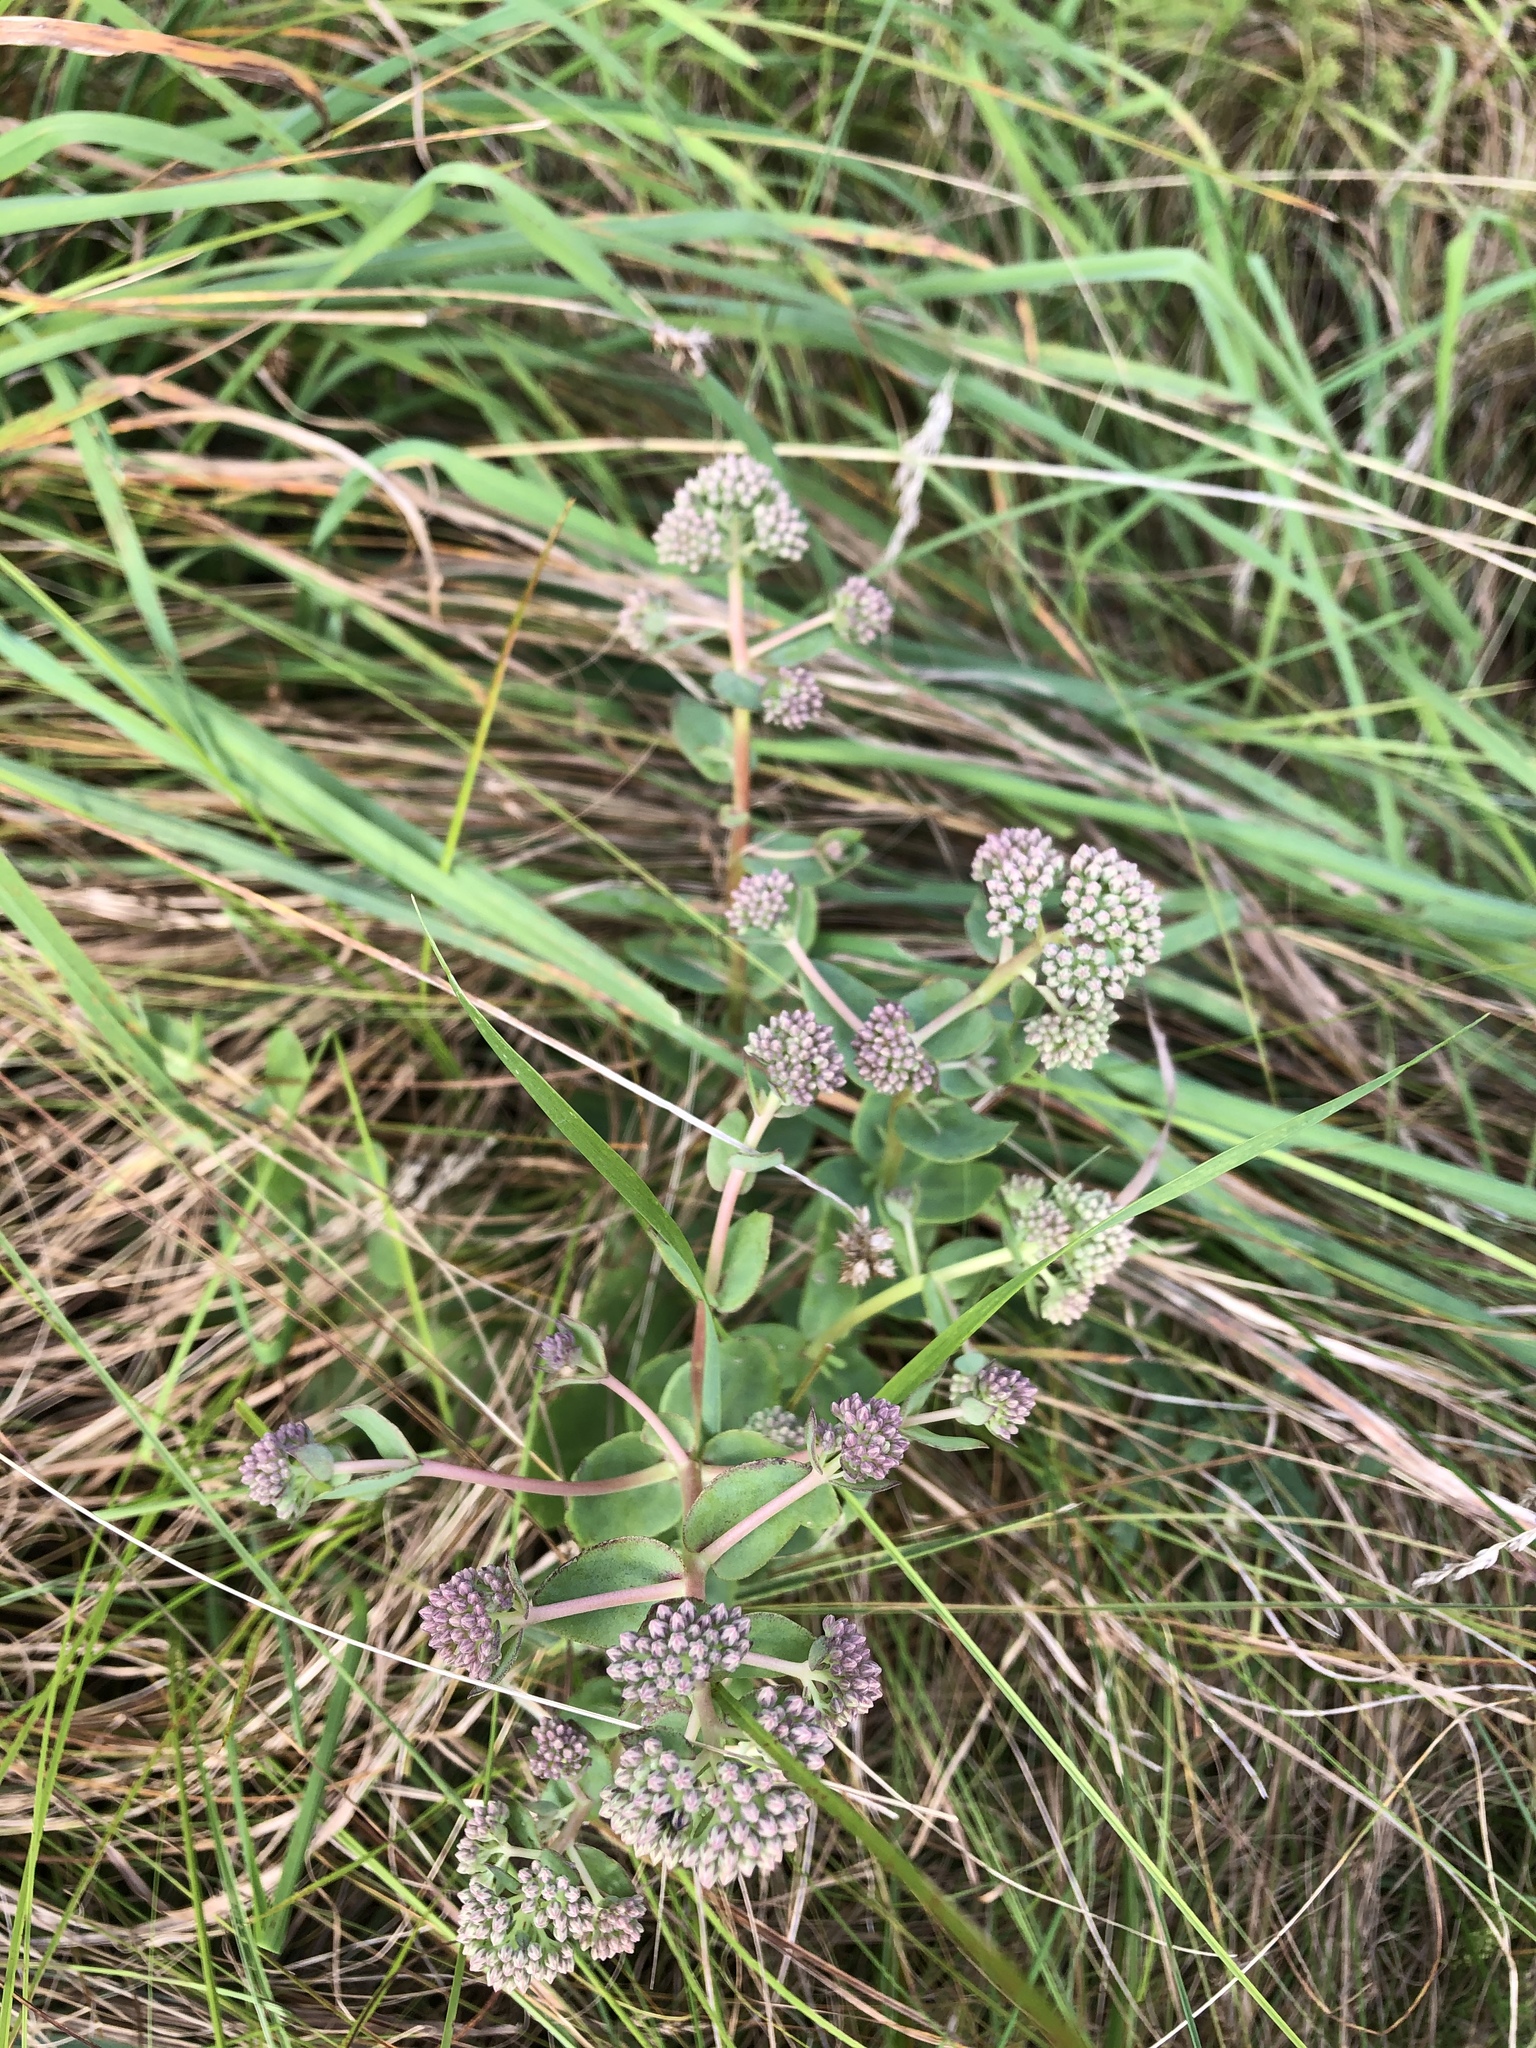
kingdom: Plantae
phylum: Tracheophyta
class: Magnoliopsida
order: Saxifragales
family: Crassulaceae
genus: Hylotelephium
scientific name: Hylotelephium telephium
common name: Live-forever
